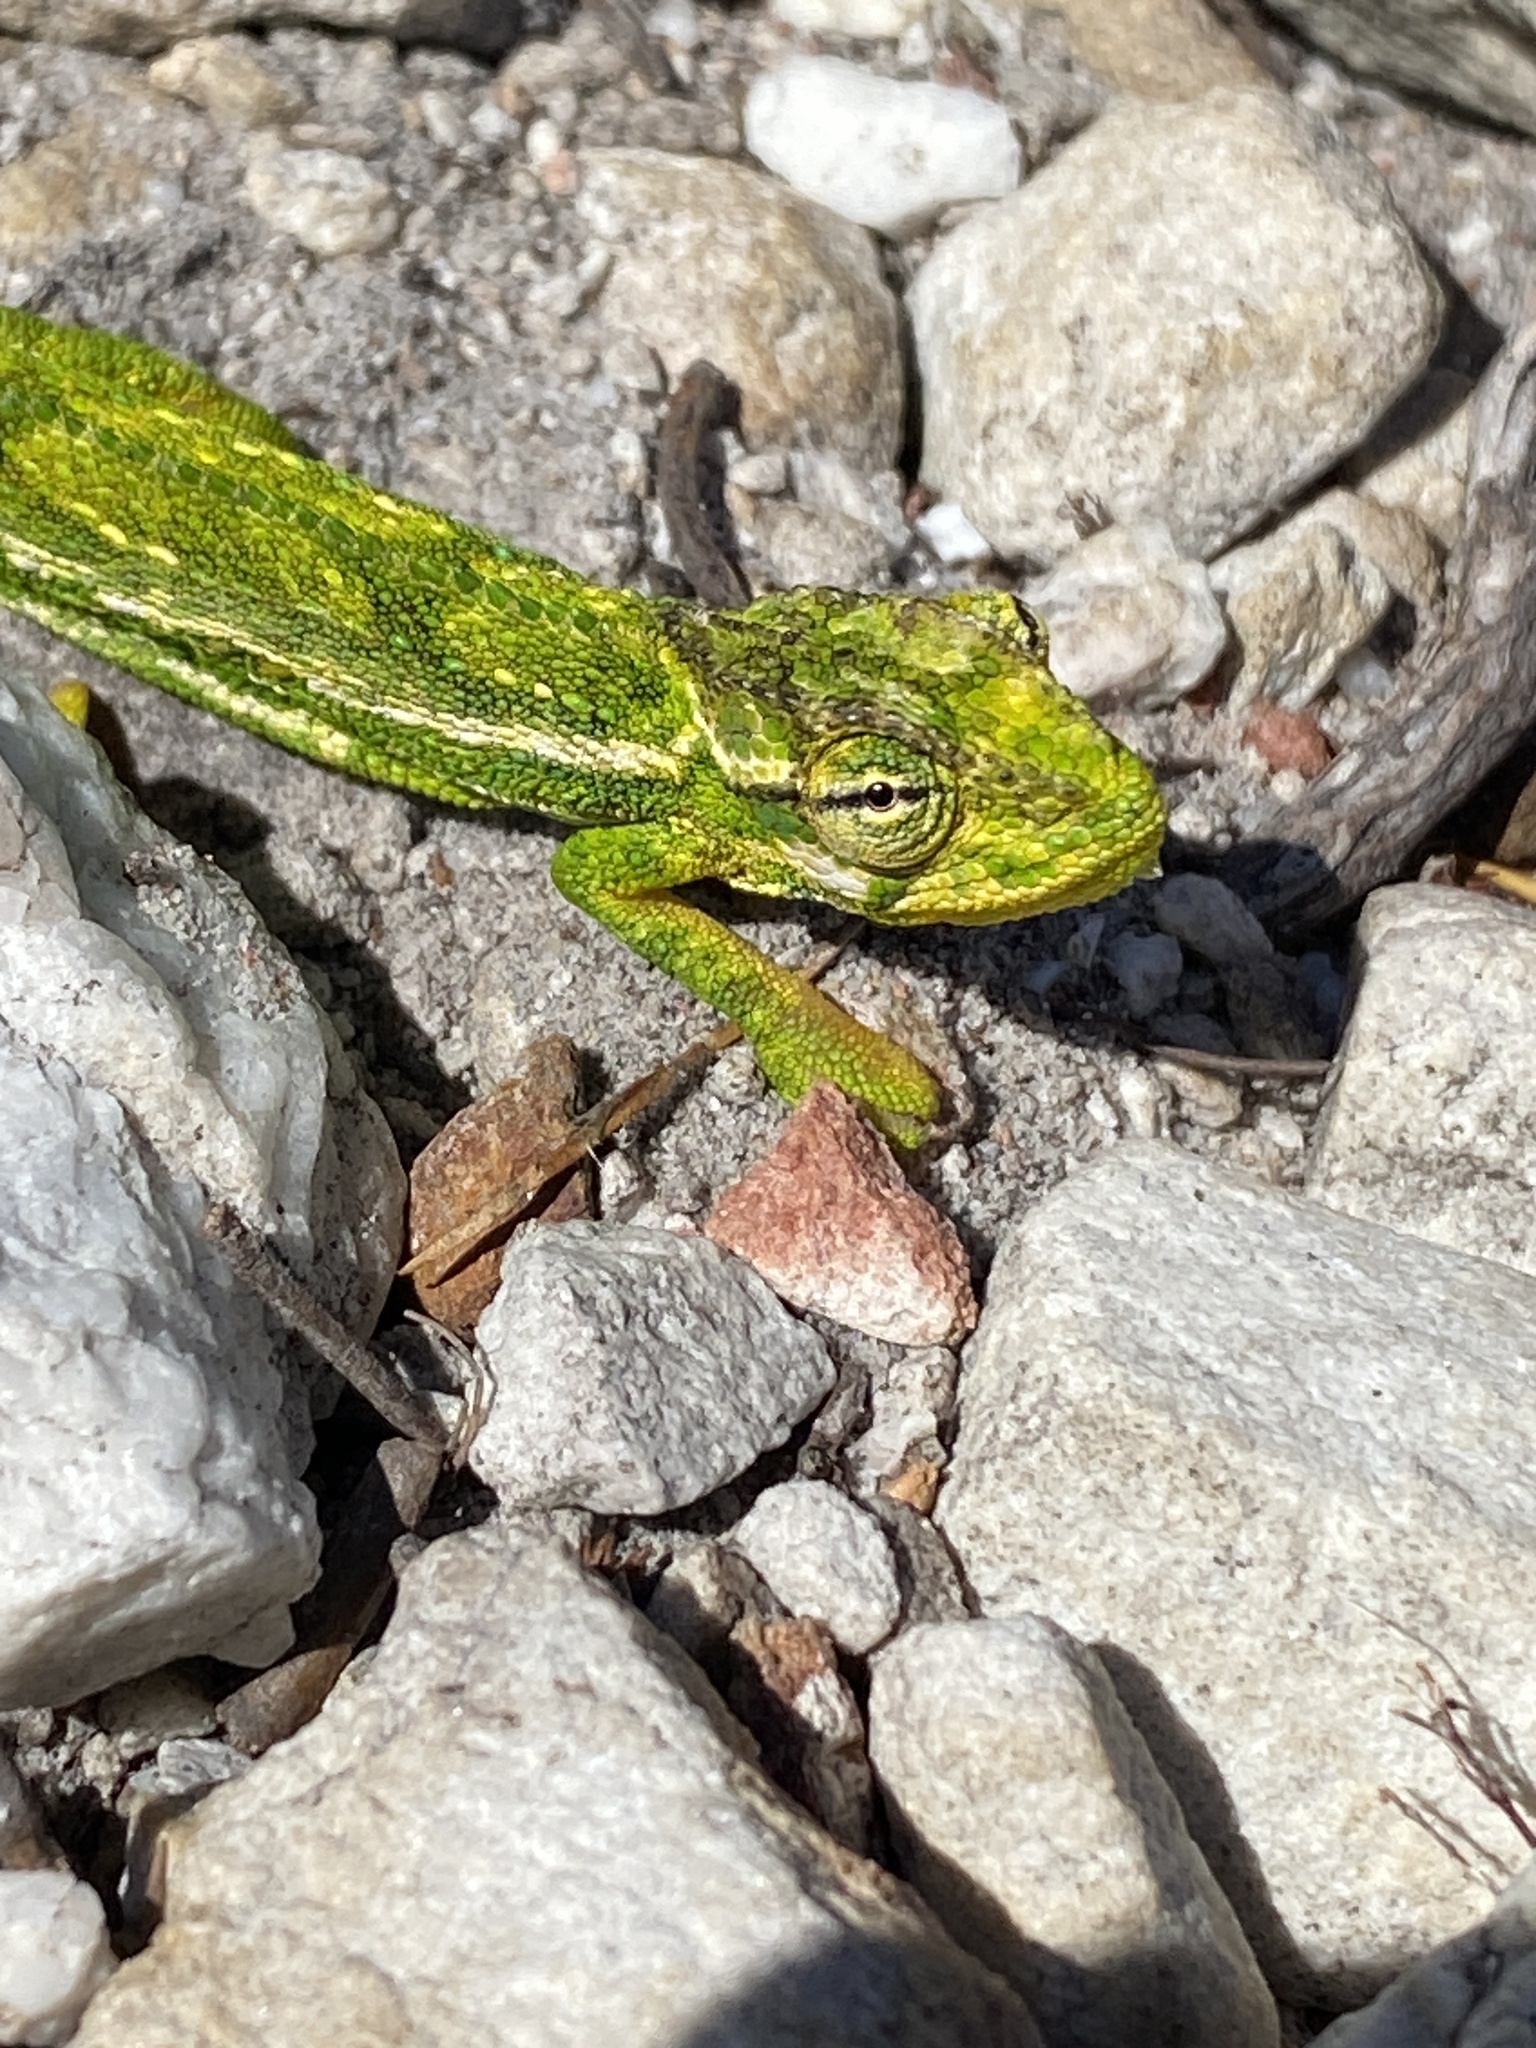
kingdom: Animalia
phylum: Chordata
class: Squamata
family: Chamaeleonidae
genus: Bradypodion
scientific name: Bradypodion pumilum
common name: Cape dwarf chameleon
